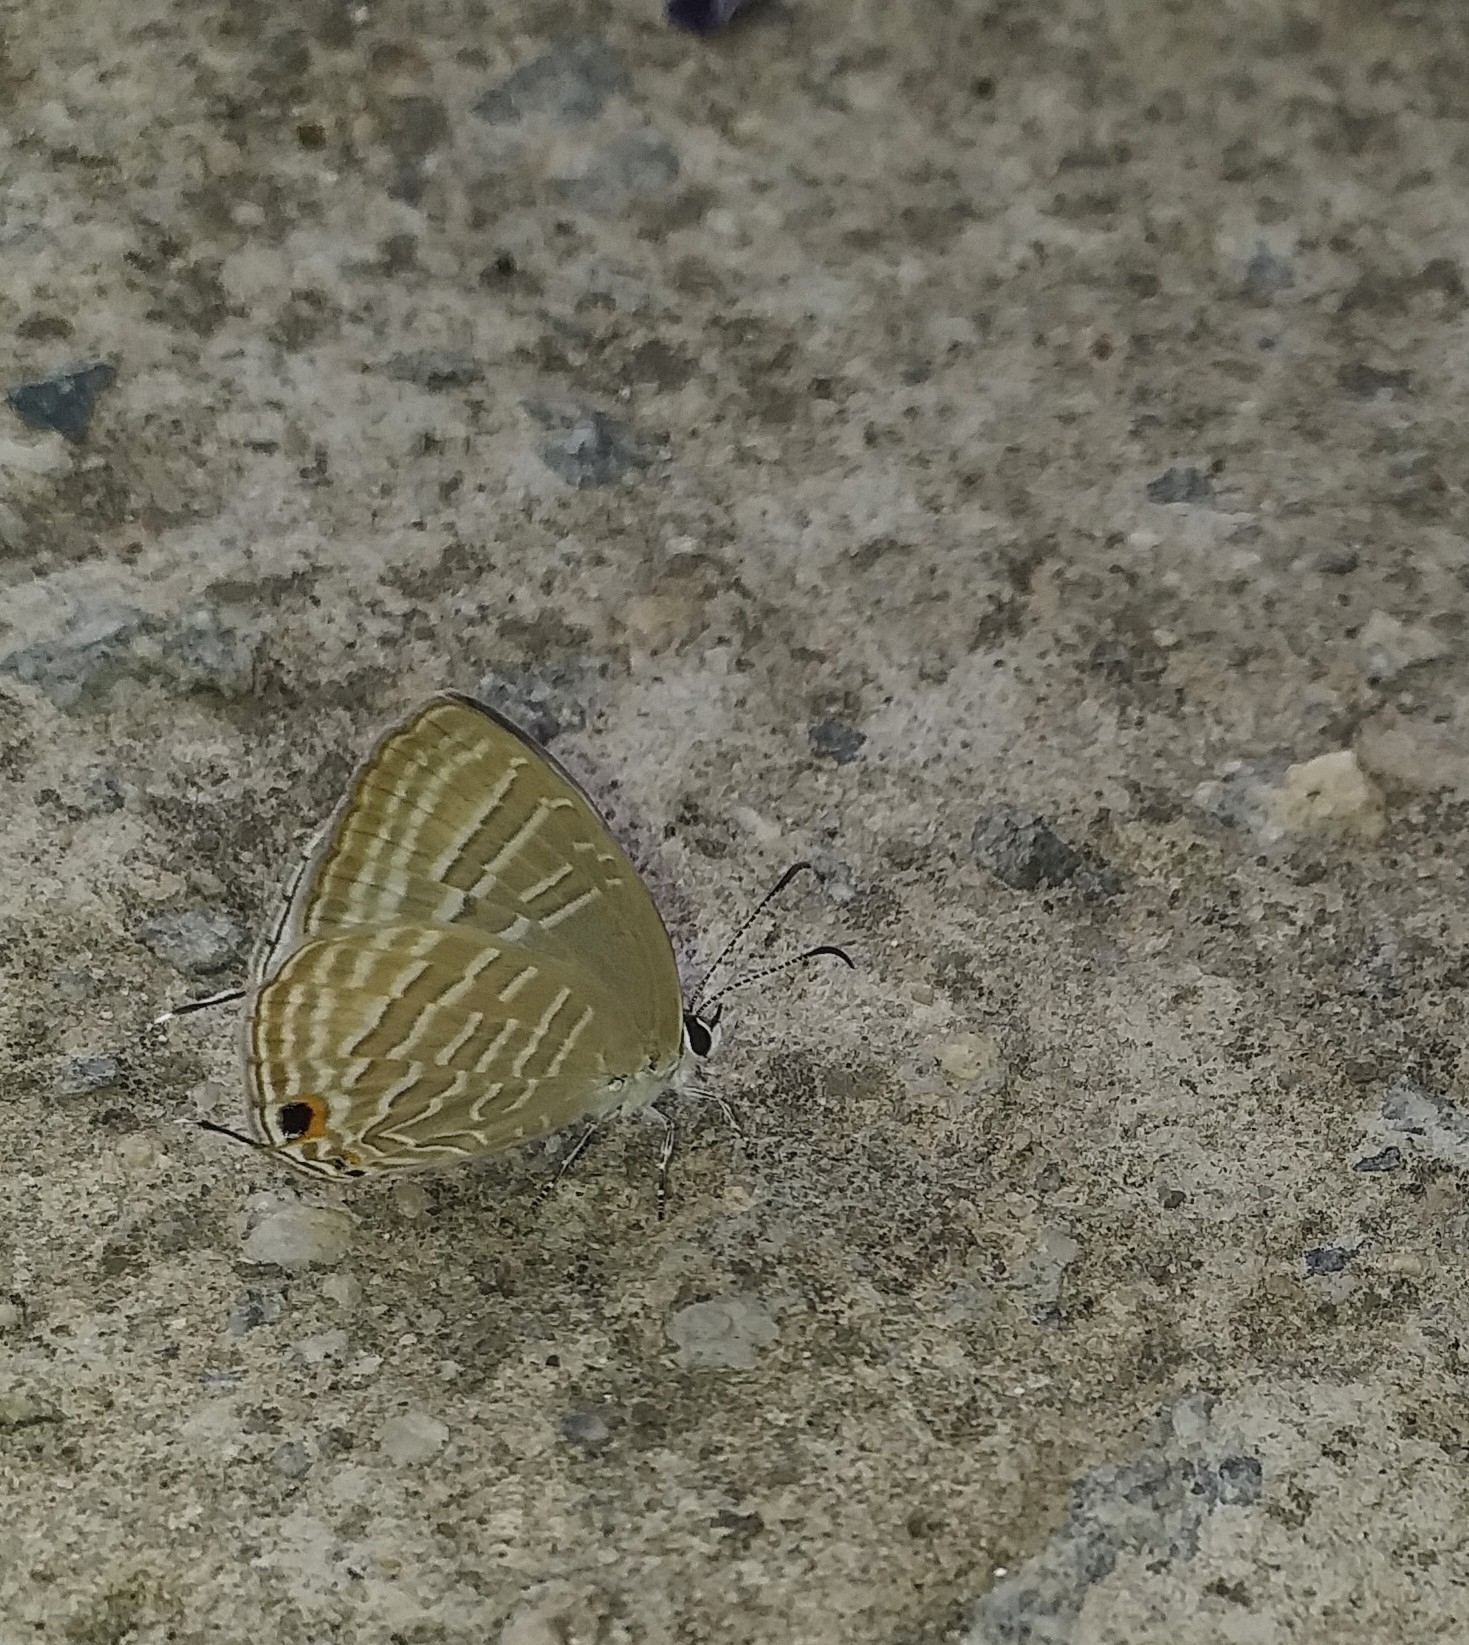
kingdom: Animalia
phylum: Arthropoda
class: Insecta
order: Lepidoptera
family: Lycaenidae
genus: Jamides
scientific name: Jamides celeno
